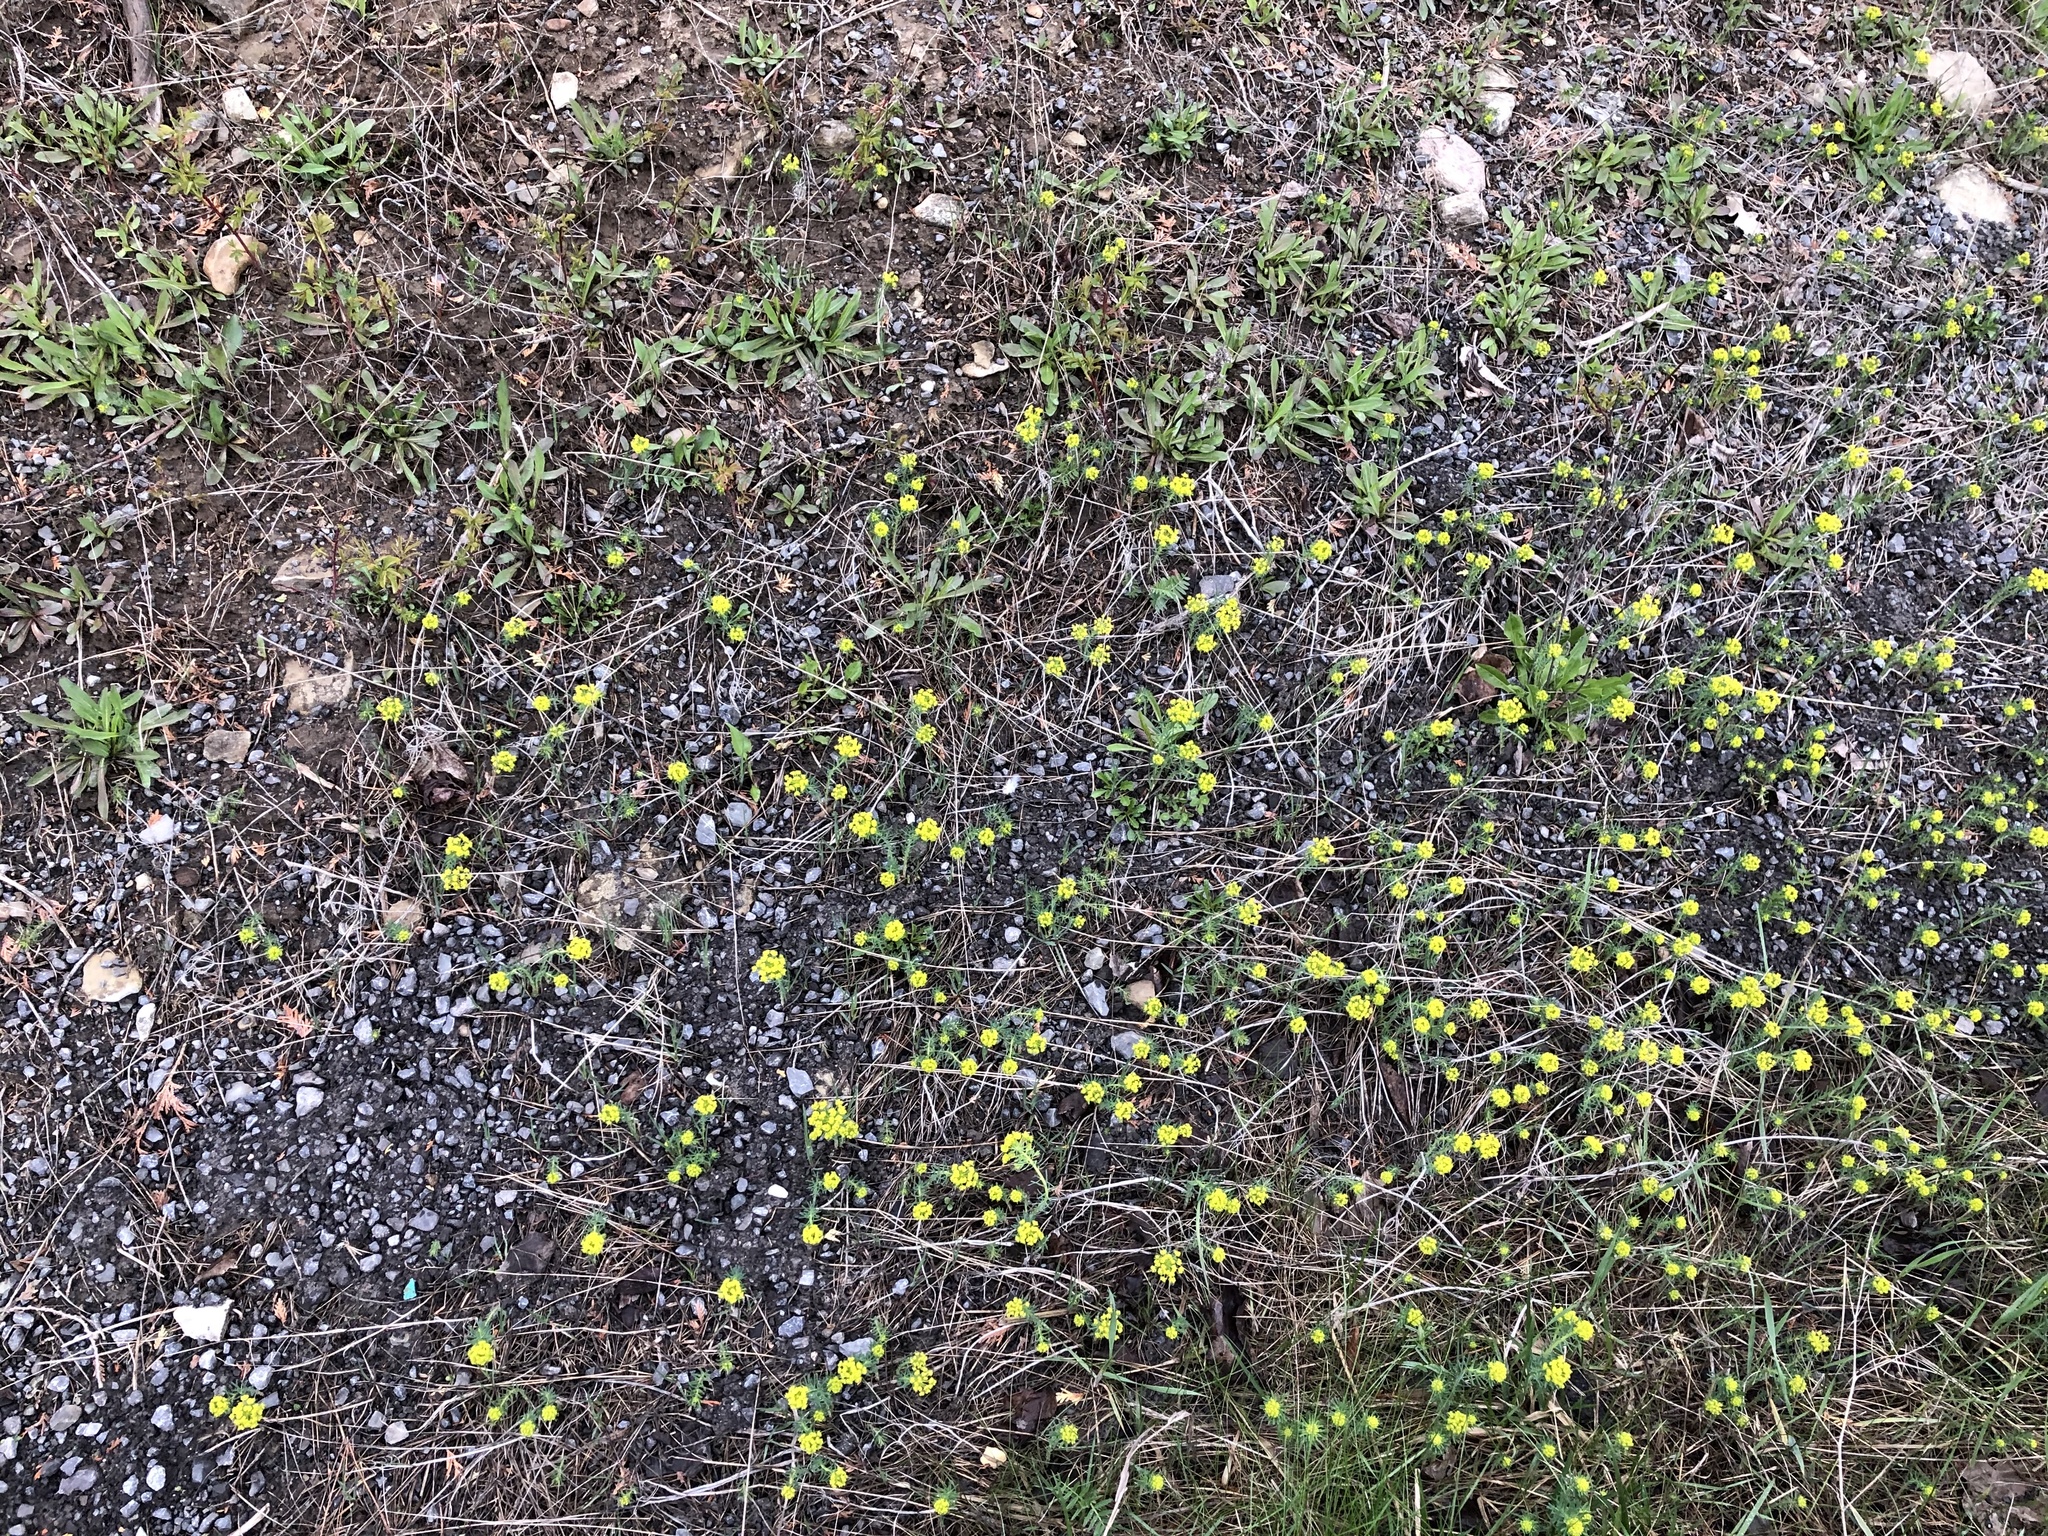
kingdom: Plantae
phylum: Tracheophyta
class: Magnoliopsida
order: Malpighiales
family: Euphorbiaceae
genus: Euphorbia
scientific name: Euphorbia cyparissias
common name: Cypress spurge
